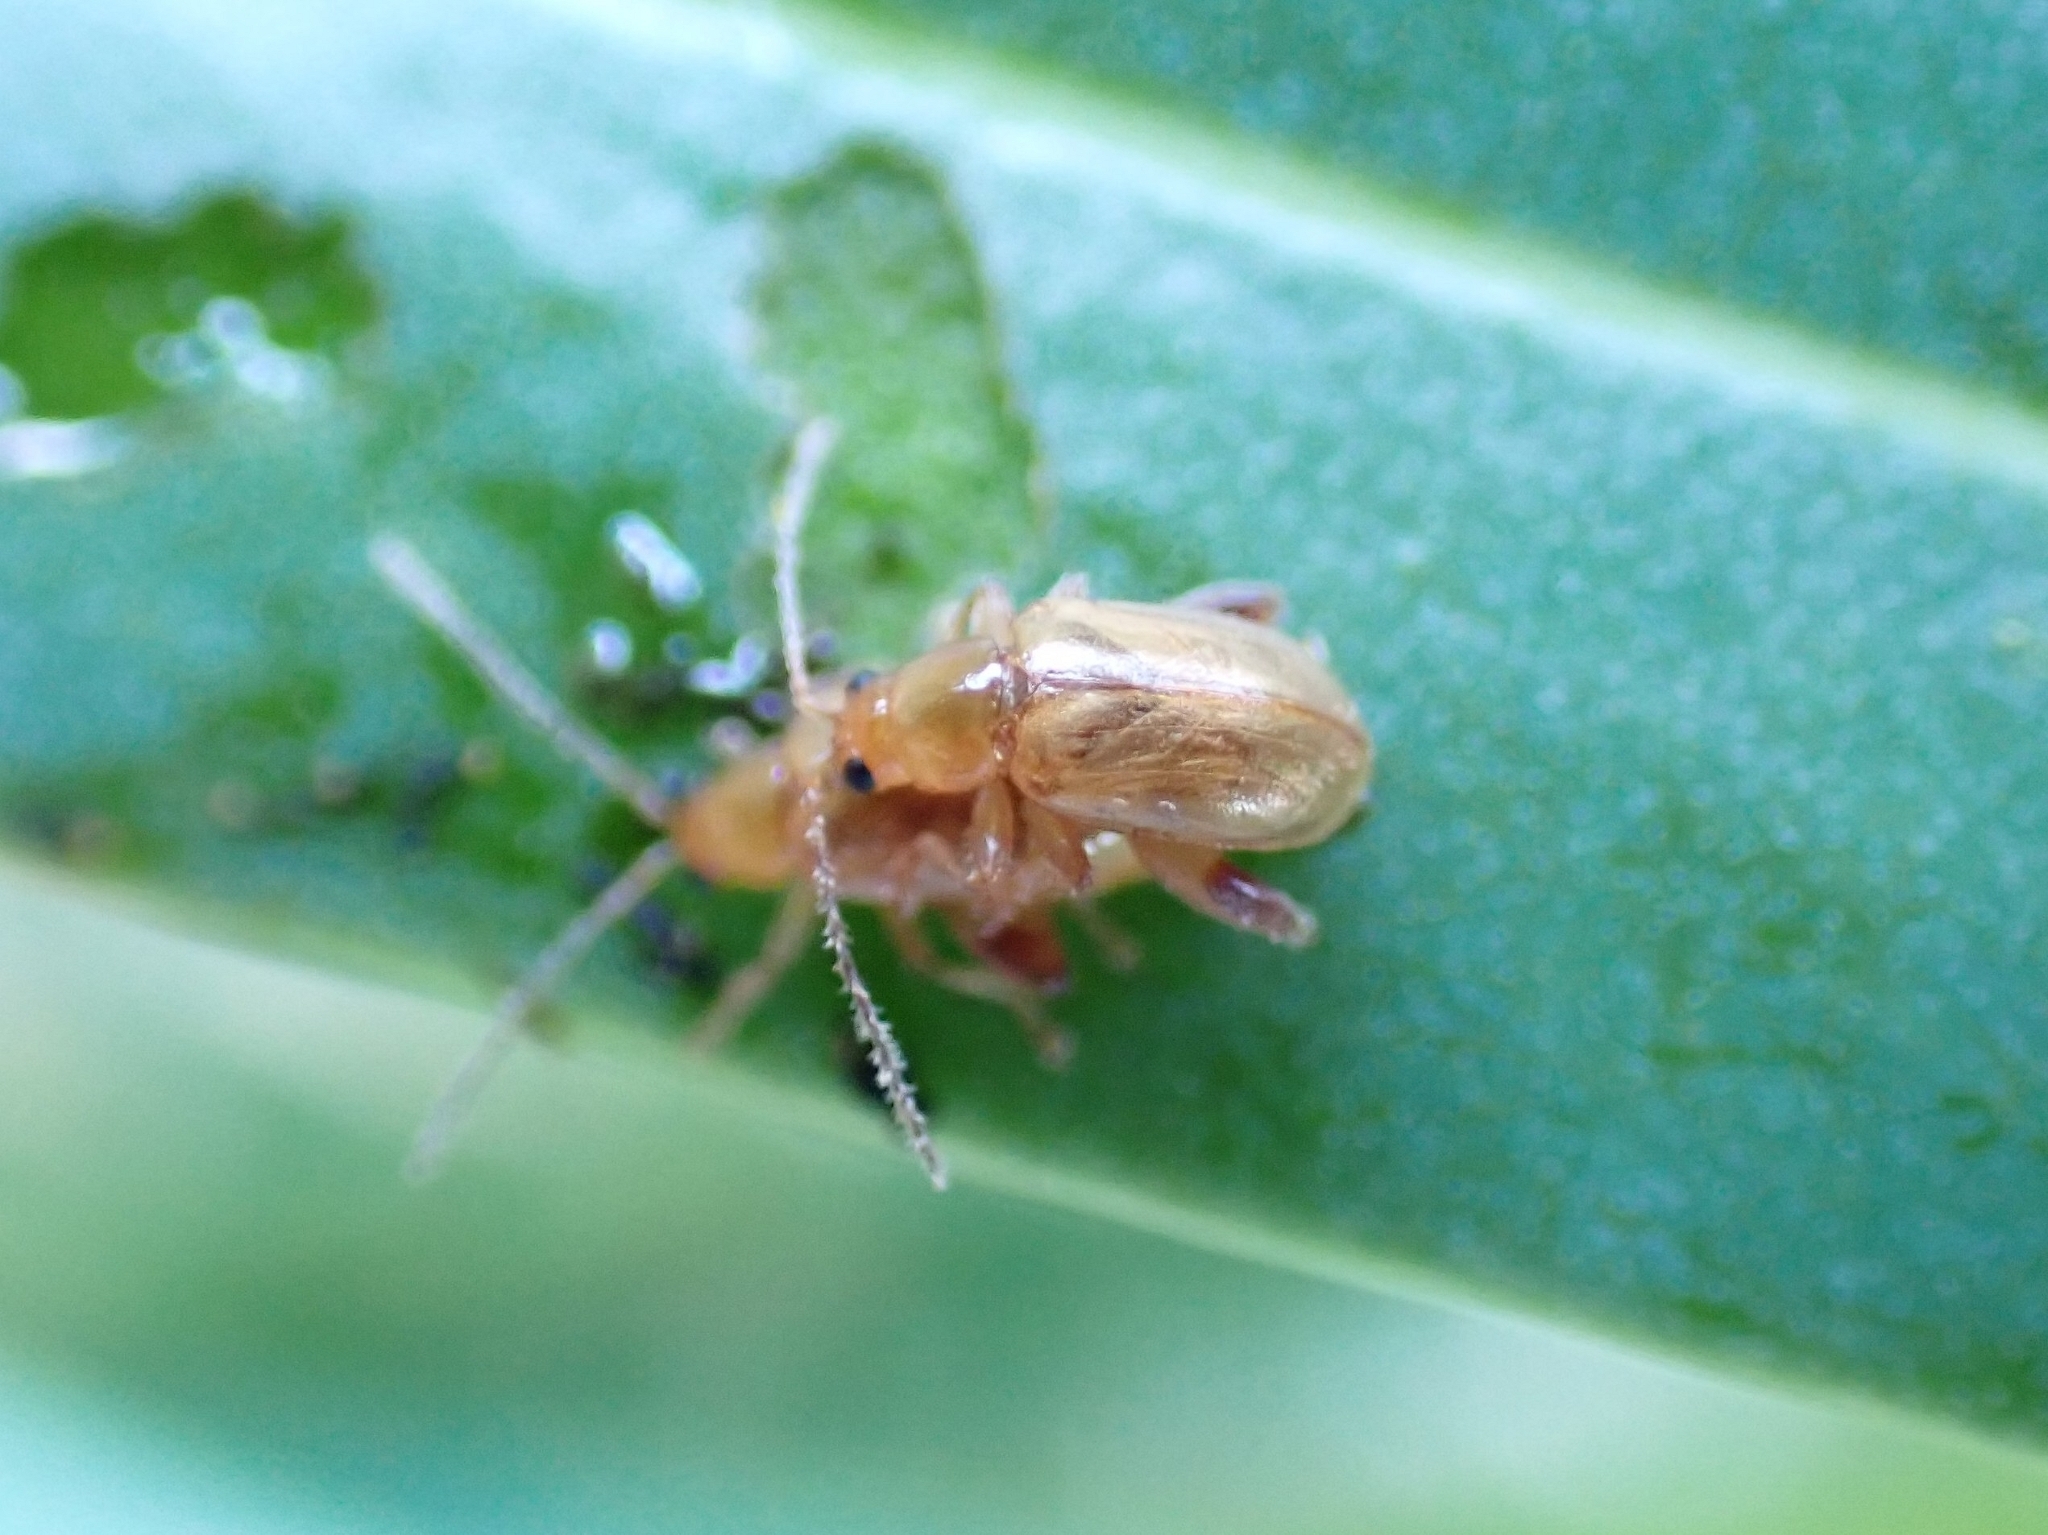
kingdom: Animalia
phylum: Arthropoda
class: Insecta
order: Coleoptera
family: Chrysomelidae
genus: Longitarsus
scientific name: Longitarsus kleiniiperda
